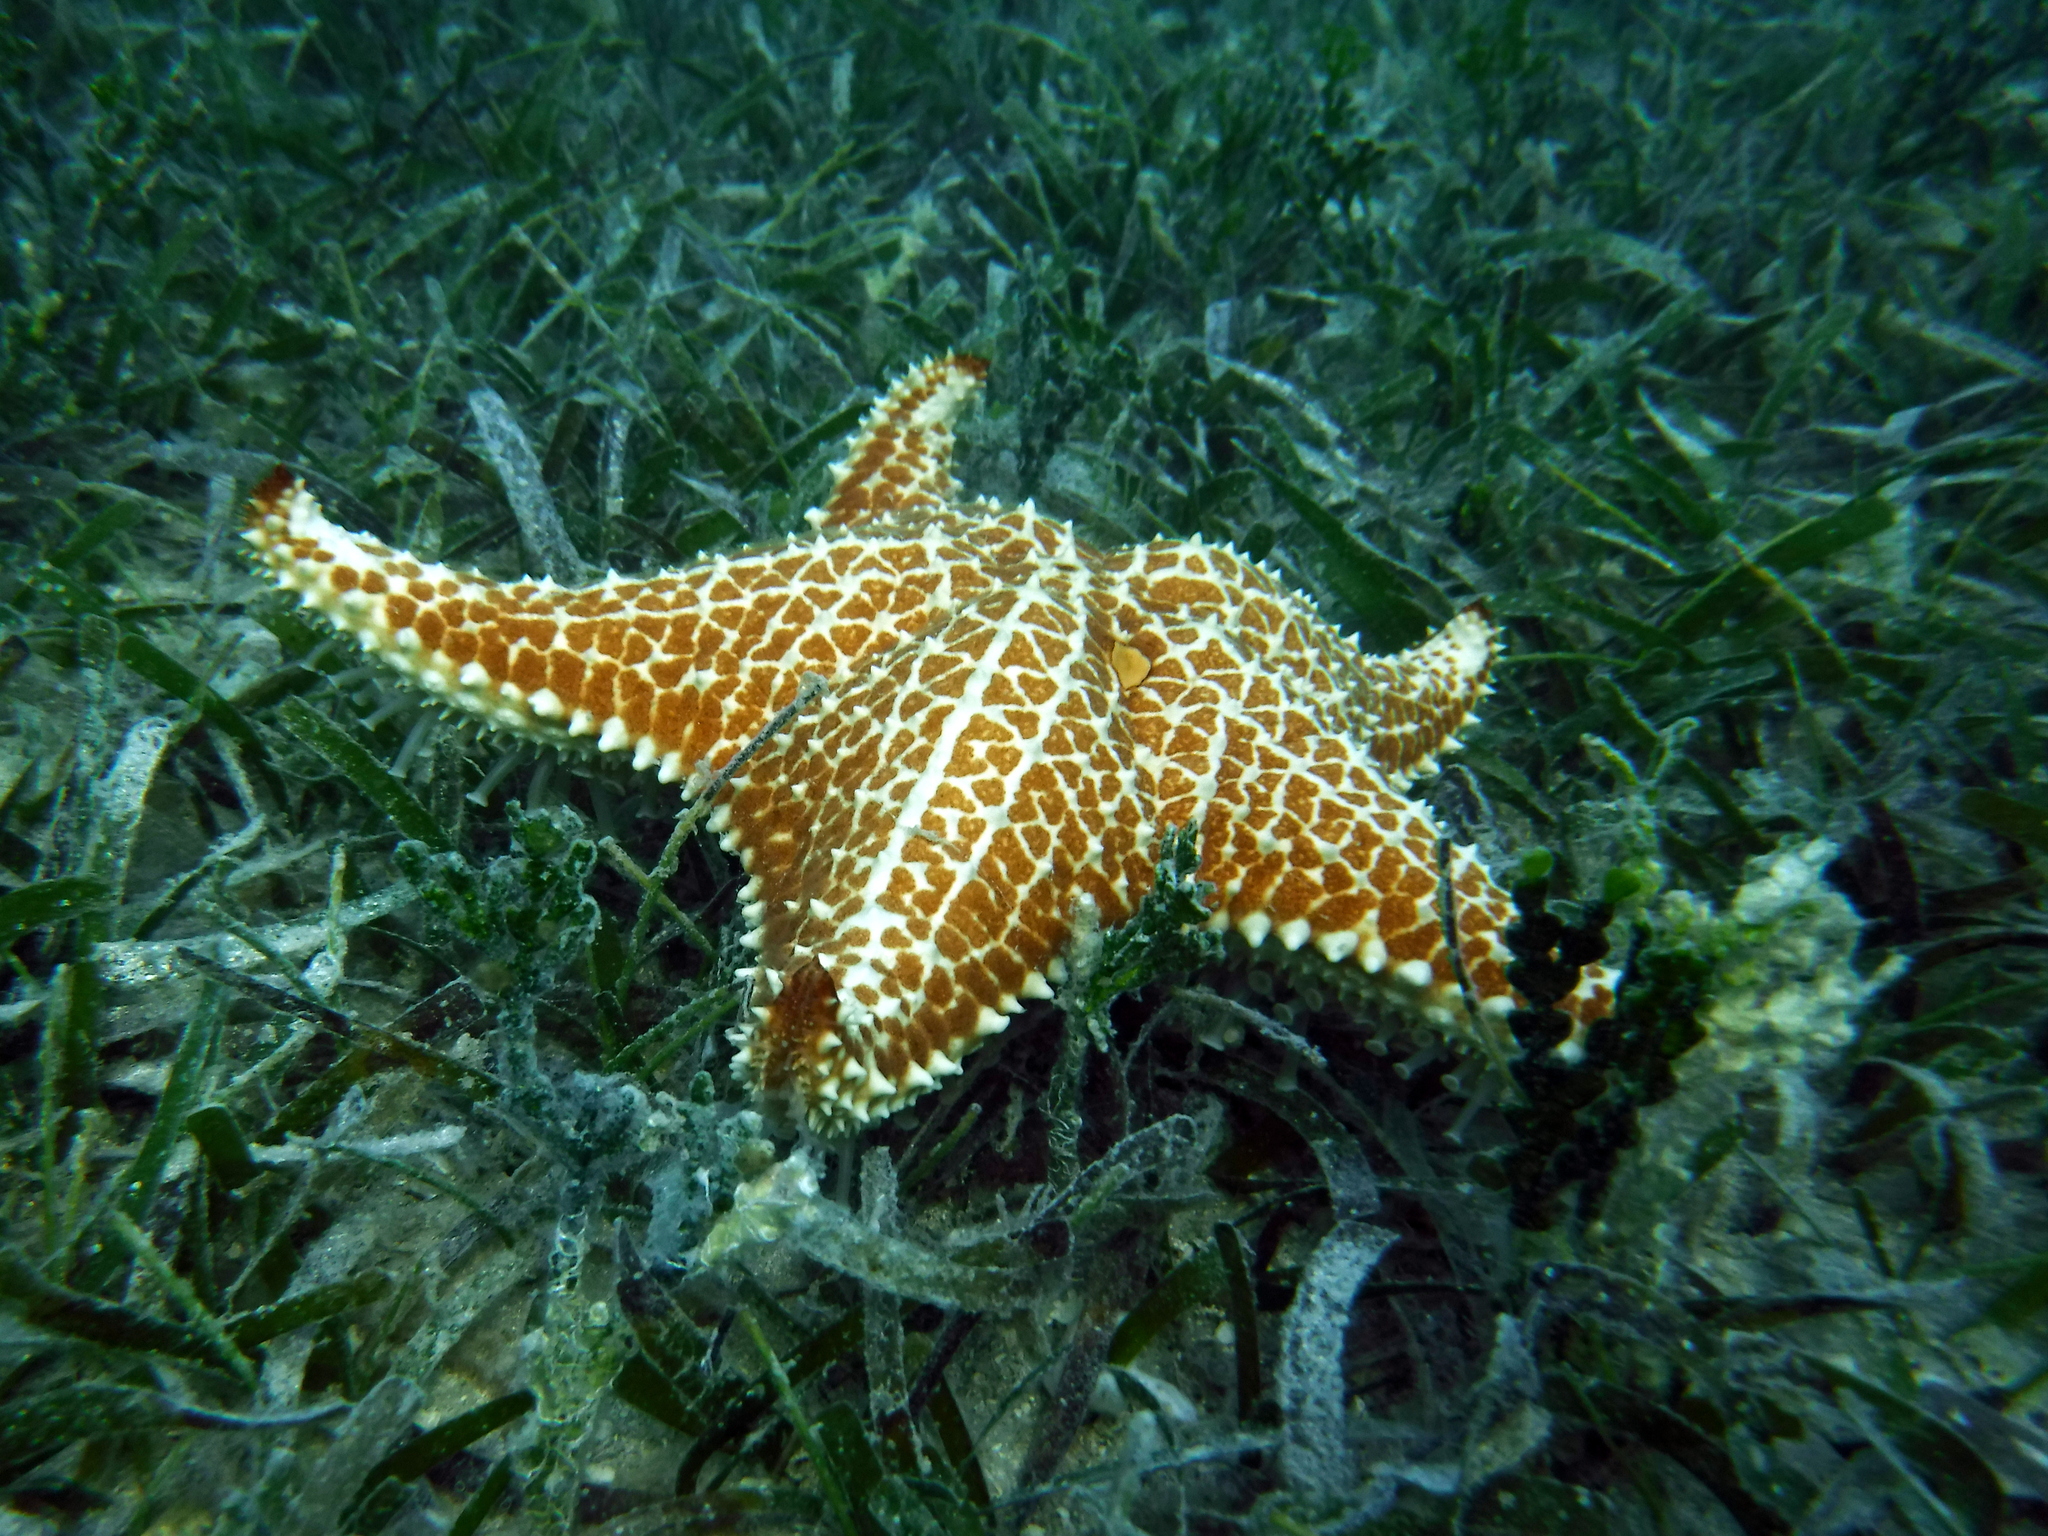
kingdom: Animalia
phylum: Echinodermata
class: Asteroidea
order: Valvatida
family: Oreasteridae
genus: Oreaster
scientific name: Oreaster reticulatus
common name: Cushion sea star
